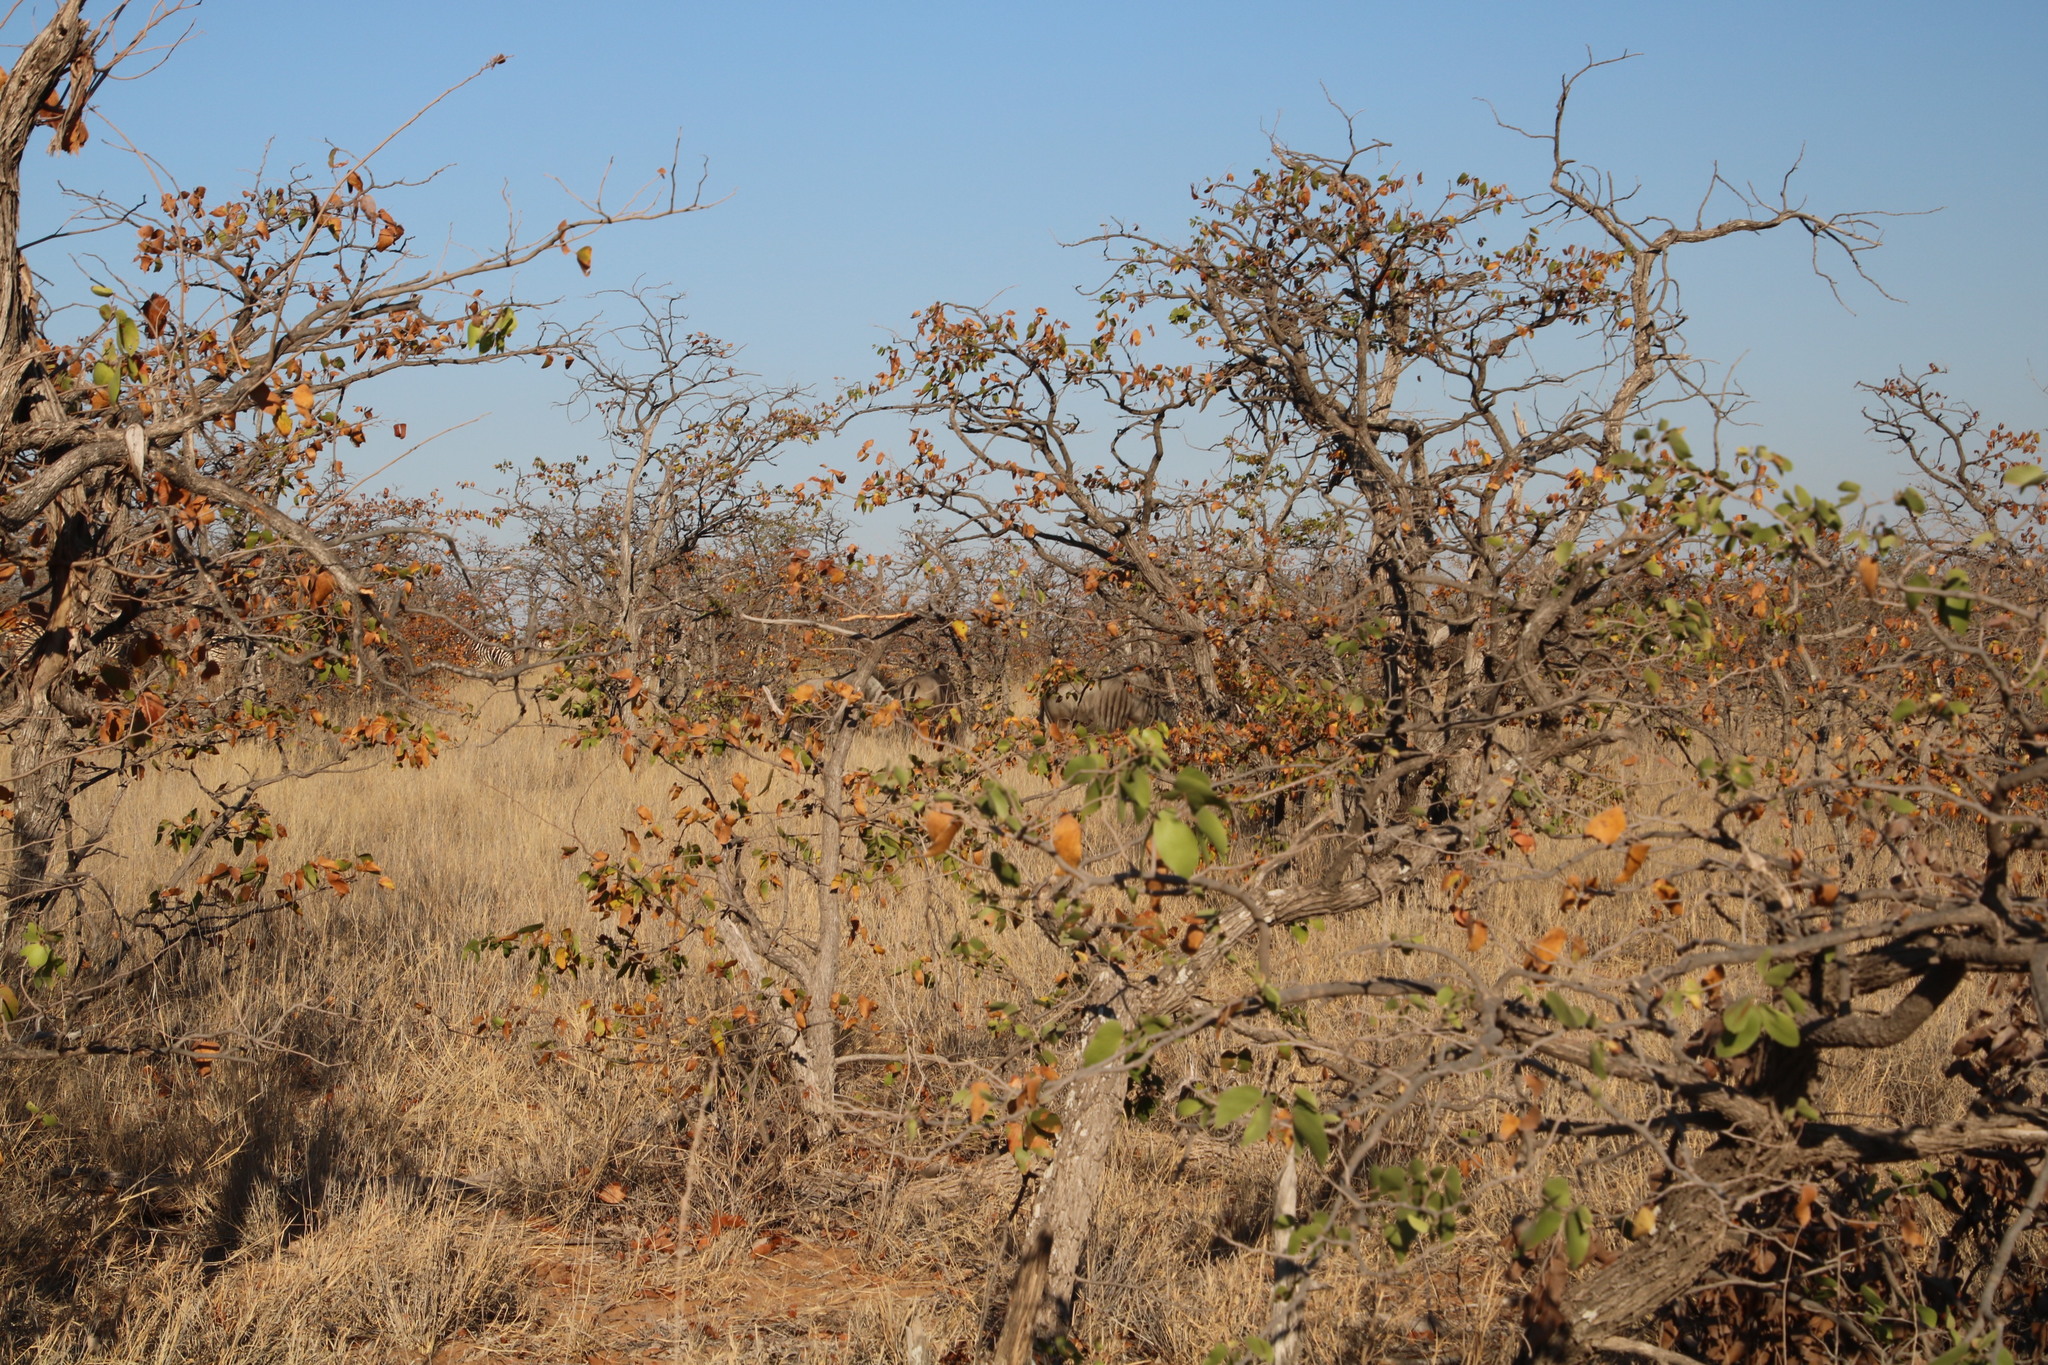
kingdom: Plantae
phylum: Tracheophyta
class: Magnoliopsida
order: Fabales
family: Fabaceae
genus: Colophospermum
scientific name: Colophospermum mopane
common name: Mopane
